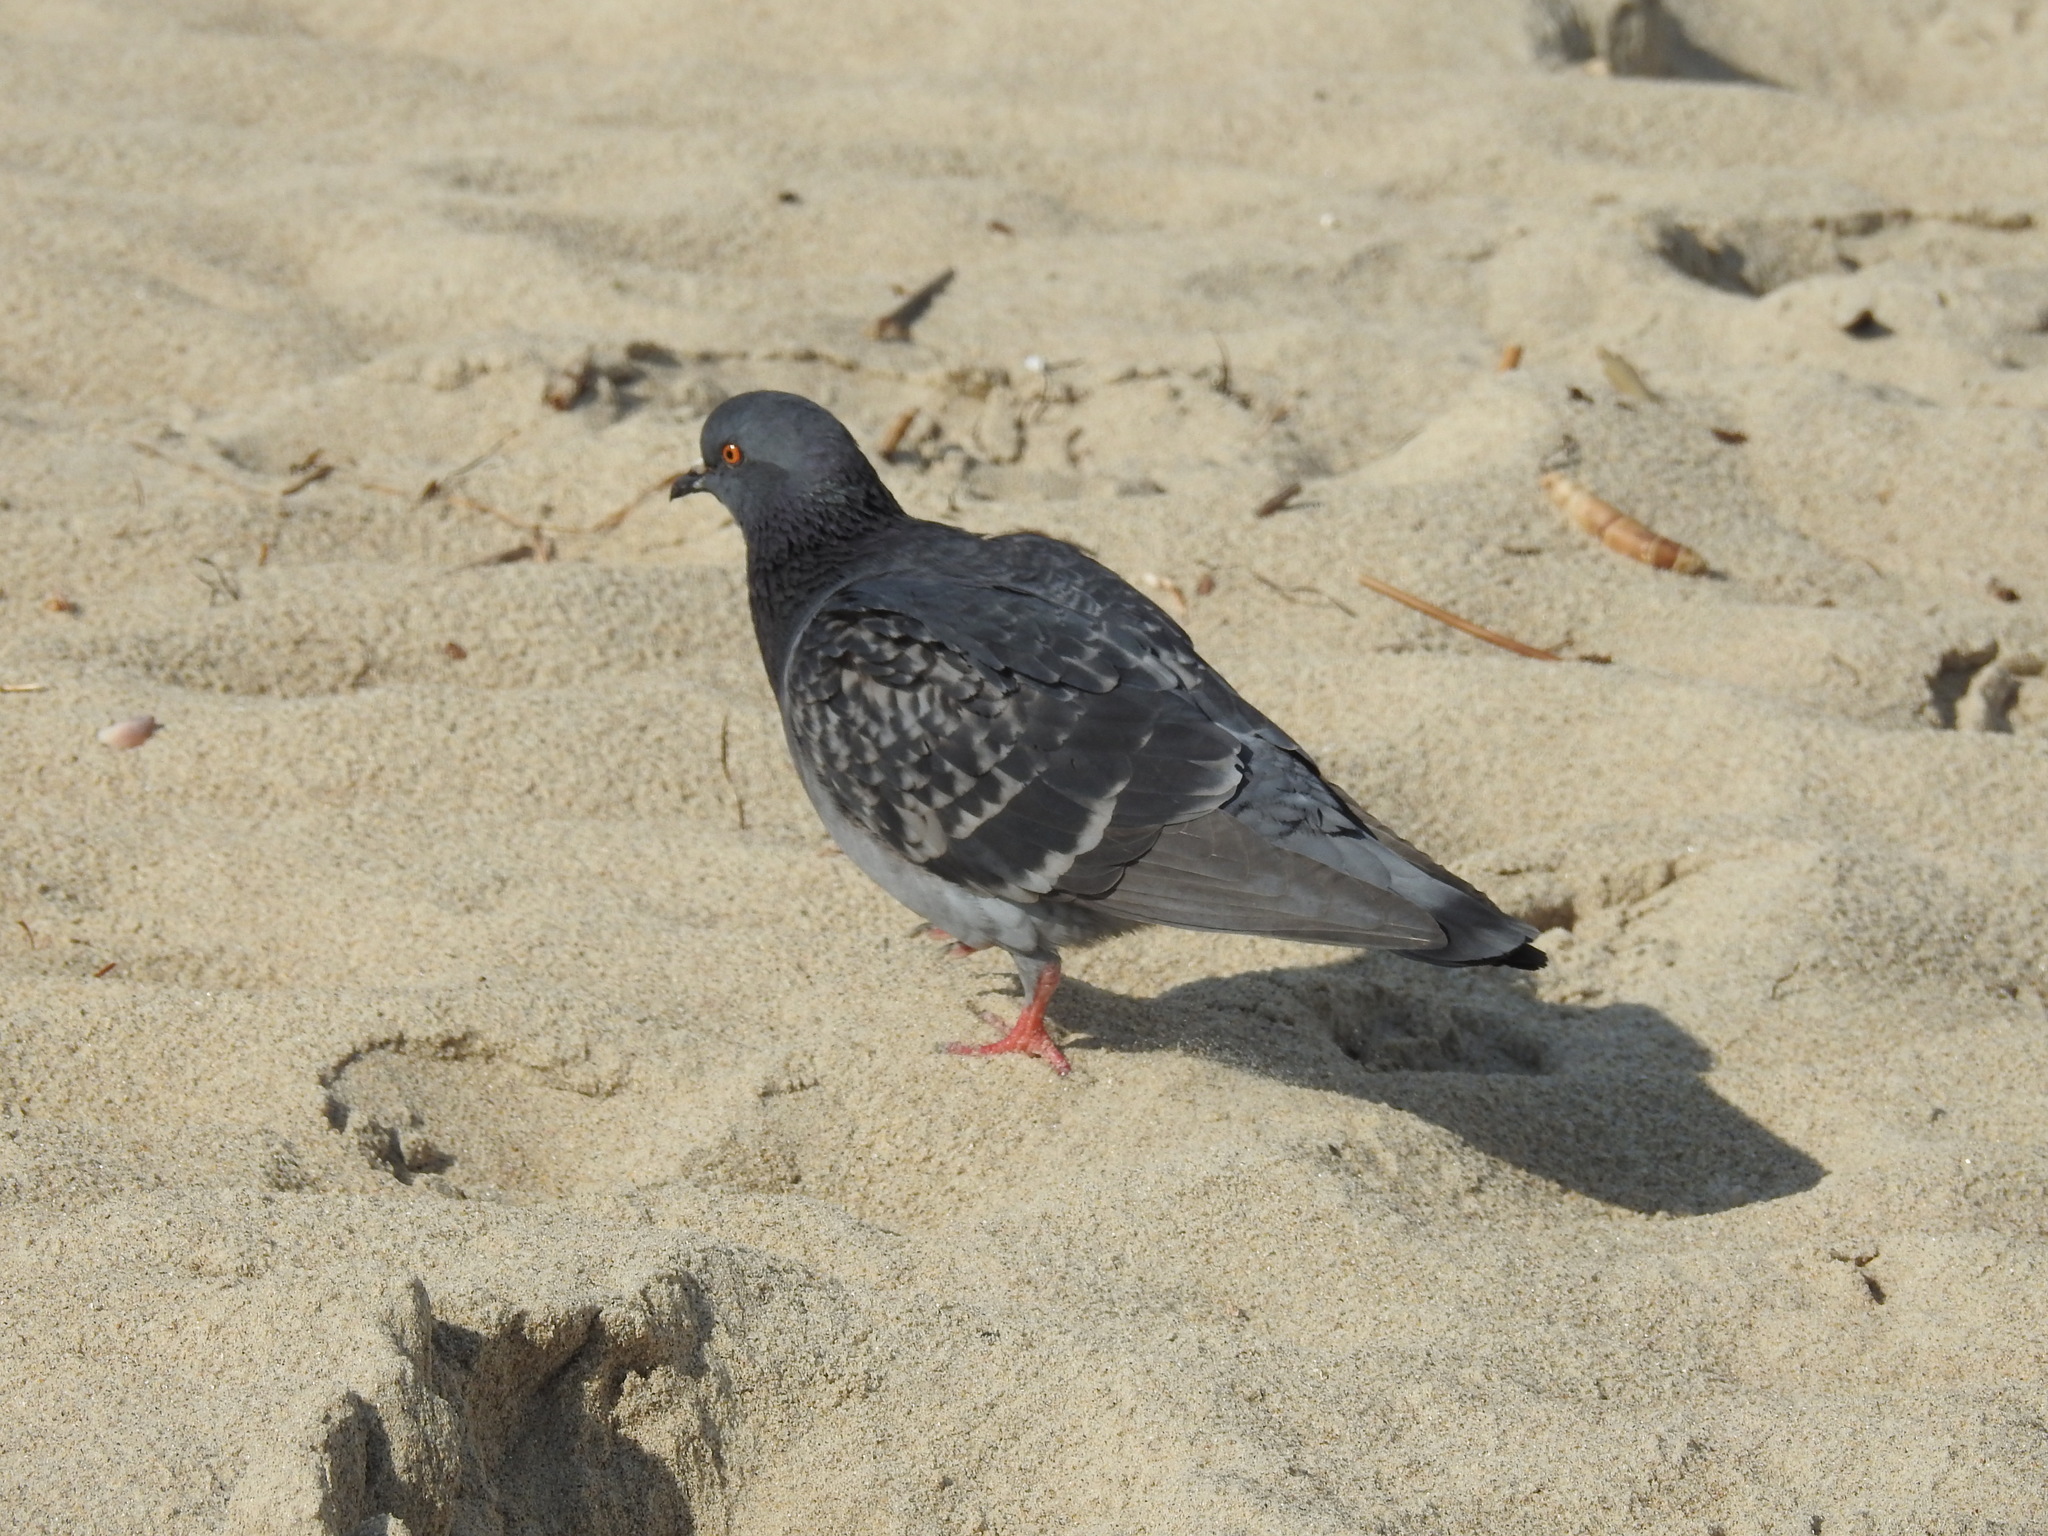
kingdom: Animalia
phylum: Chordata
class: Aves
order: Columbiformes
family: Columbidae
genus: Columba
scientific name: Columba livia
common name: Rock pigeon
